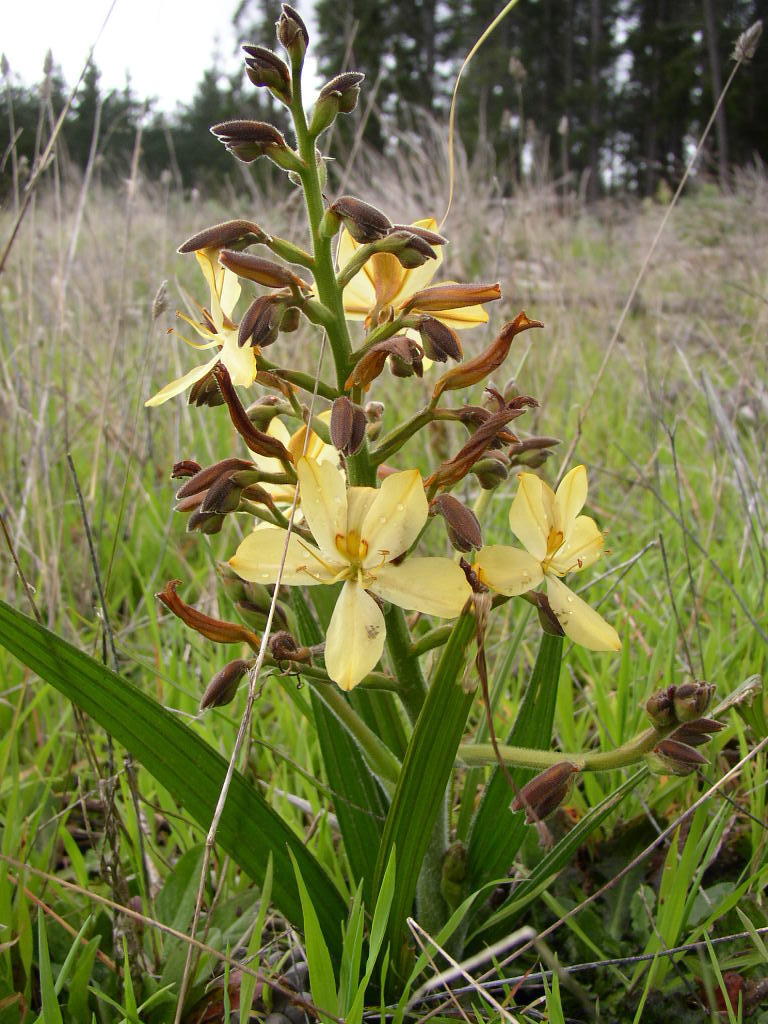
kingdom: Plantae
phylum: Tracheophyta
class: Liliopsida
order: Commelinales
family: Haemodoraceae
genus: Wachendorfia
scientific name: Wachendorfia paniculata
